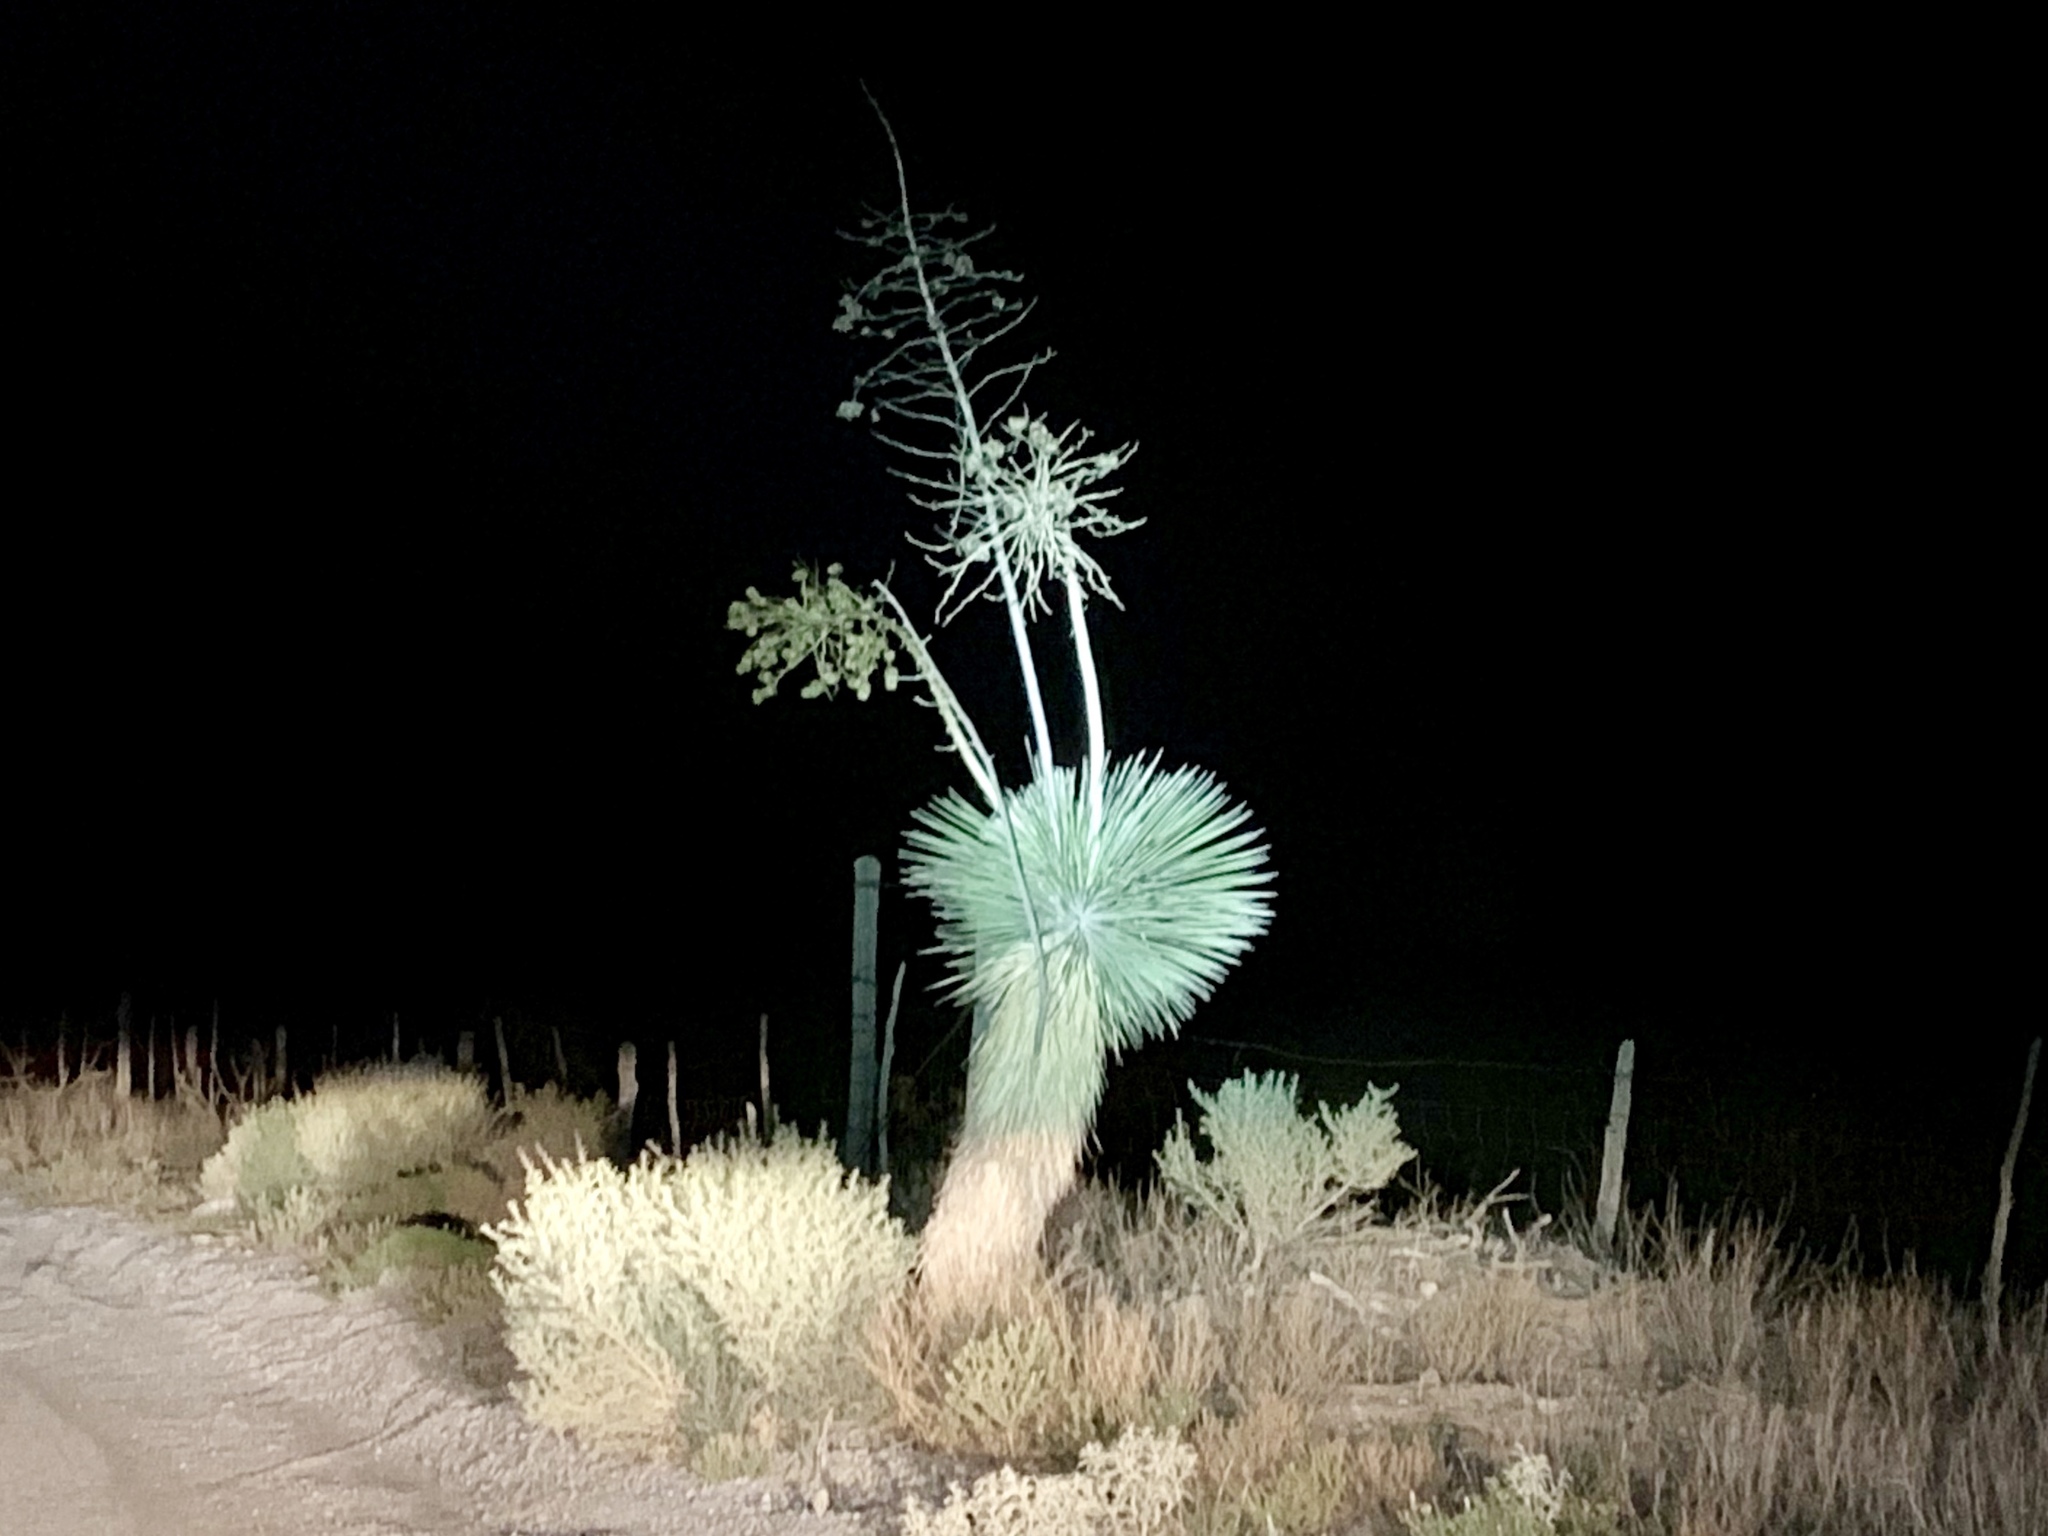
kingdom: Plantae
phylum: Tracheophyta
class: Liliopsida
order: Asparagales
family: Asparagaceae
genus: Yucca
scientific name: Yucca elata
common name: Palmella
